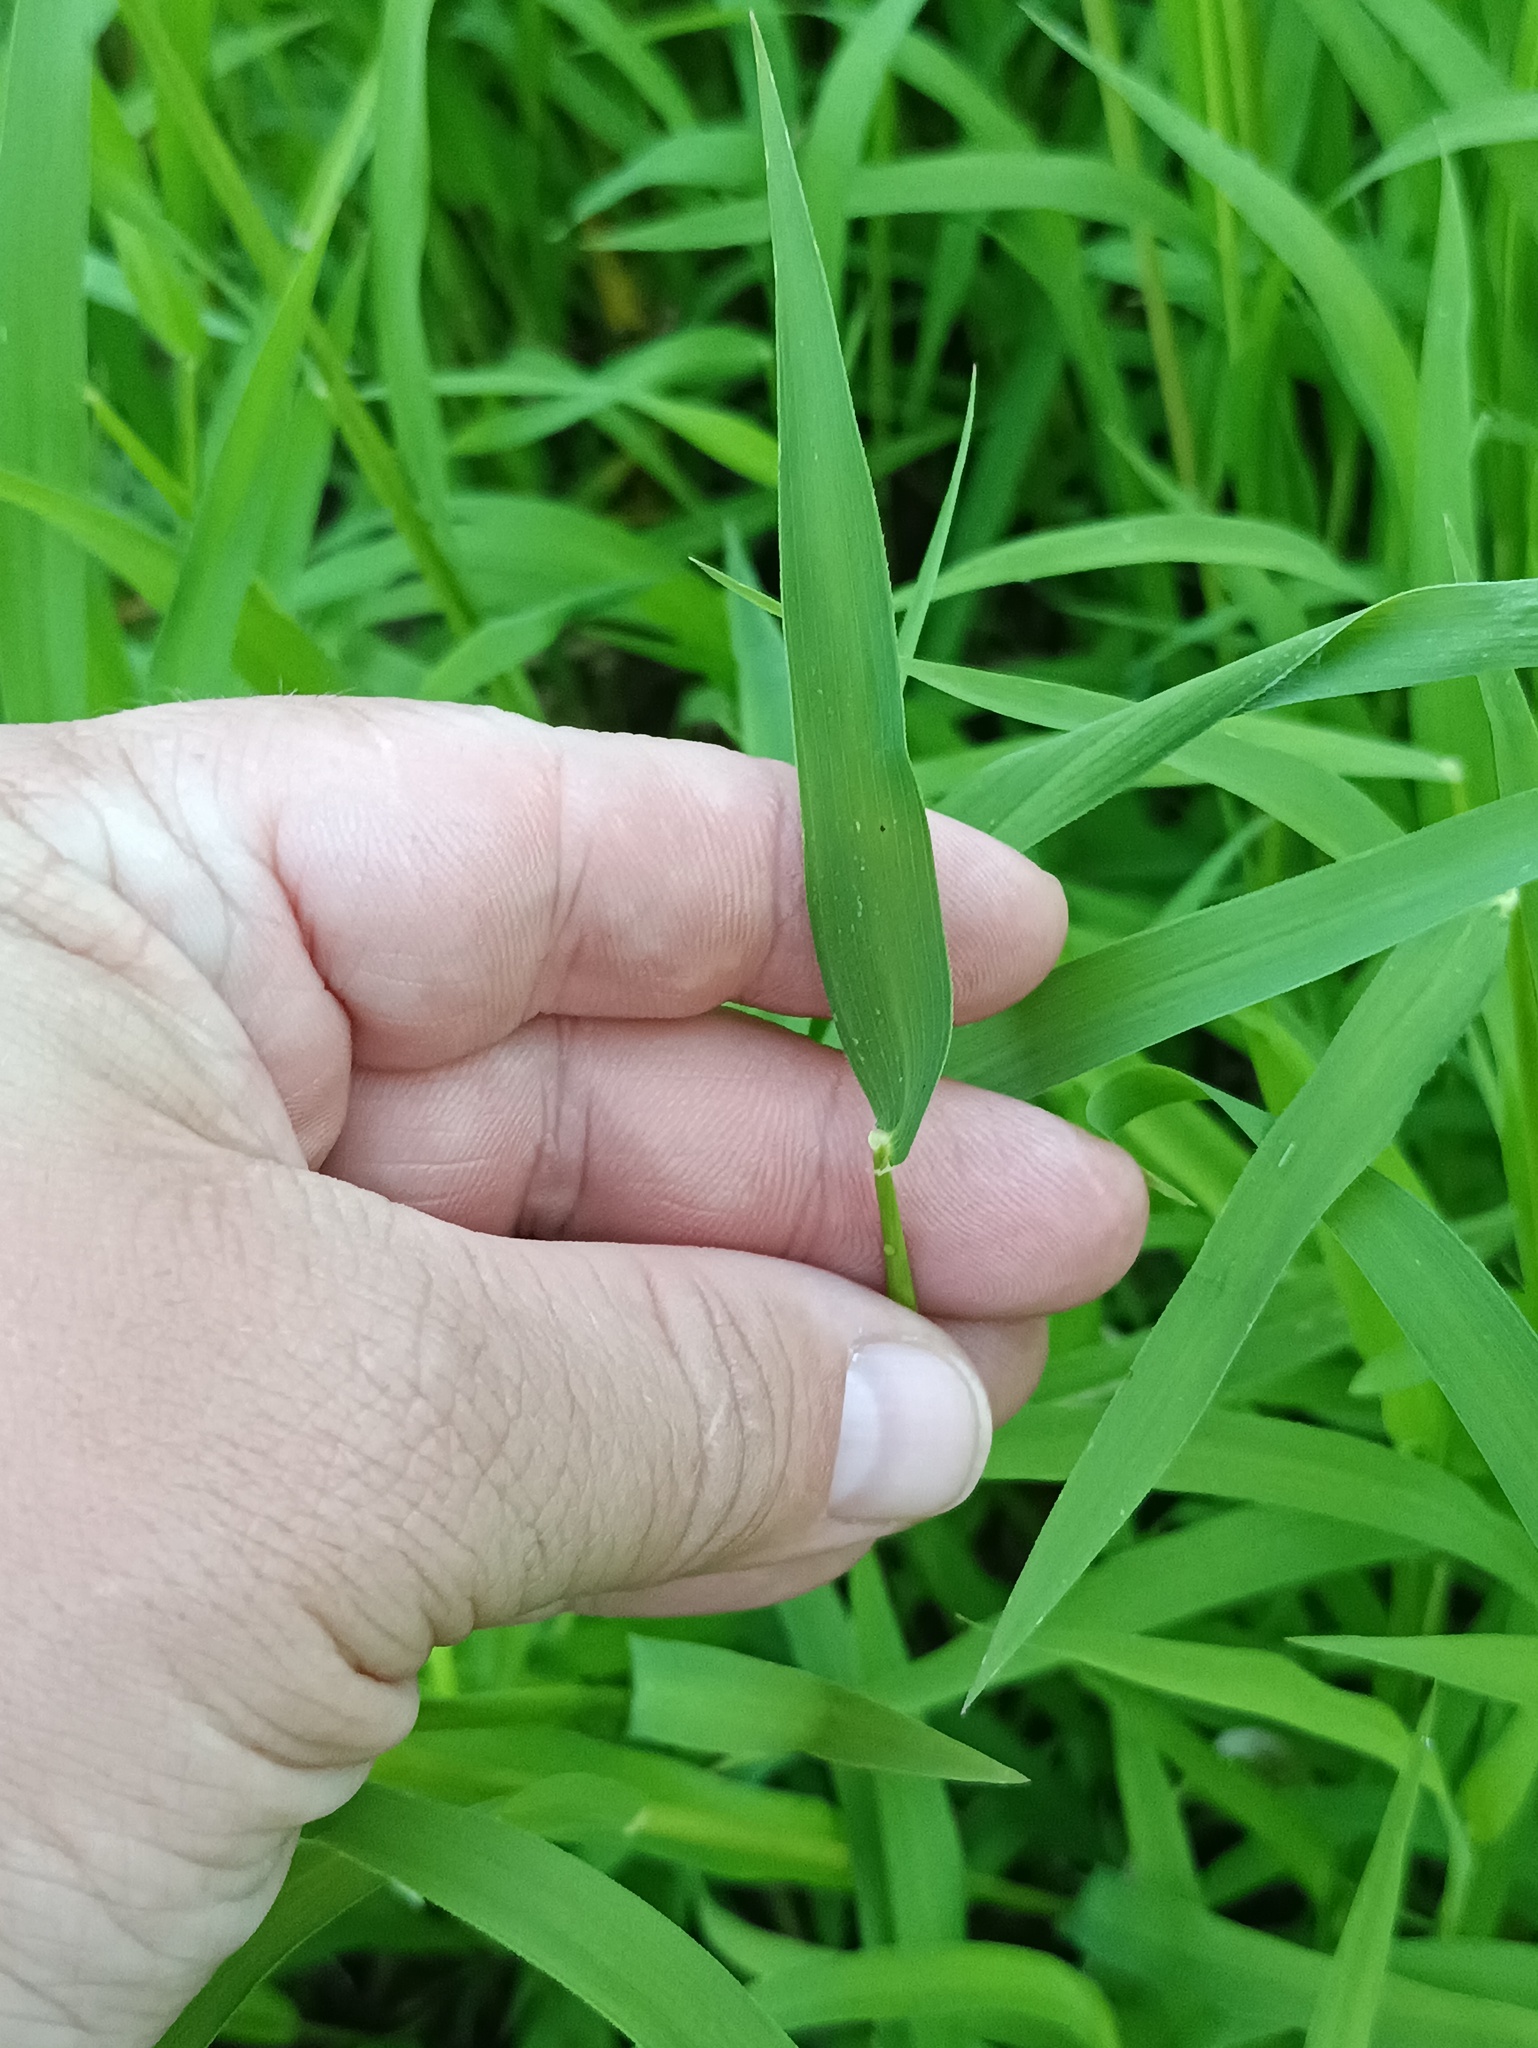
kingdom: Plantae
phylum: Tracheophyta
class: Liliopsida
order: Poales
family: Poaceae
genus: Leersia
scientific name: Leersia oryzoides
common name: Cut-grass
